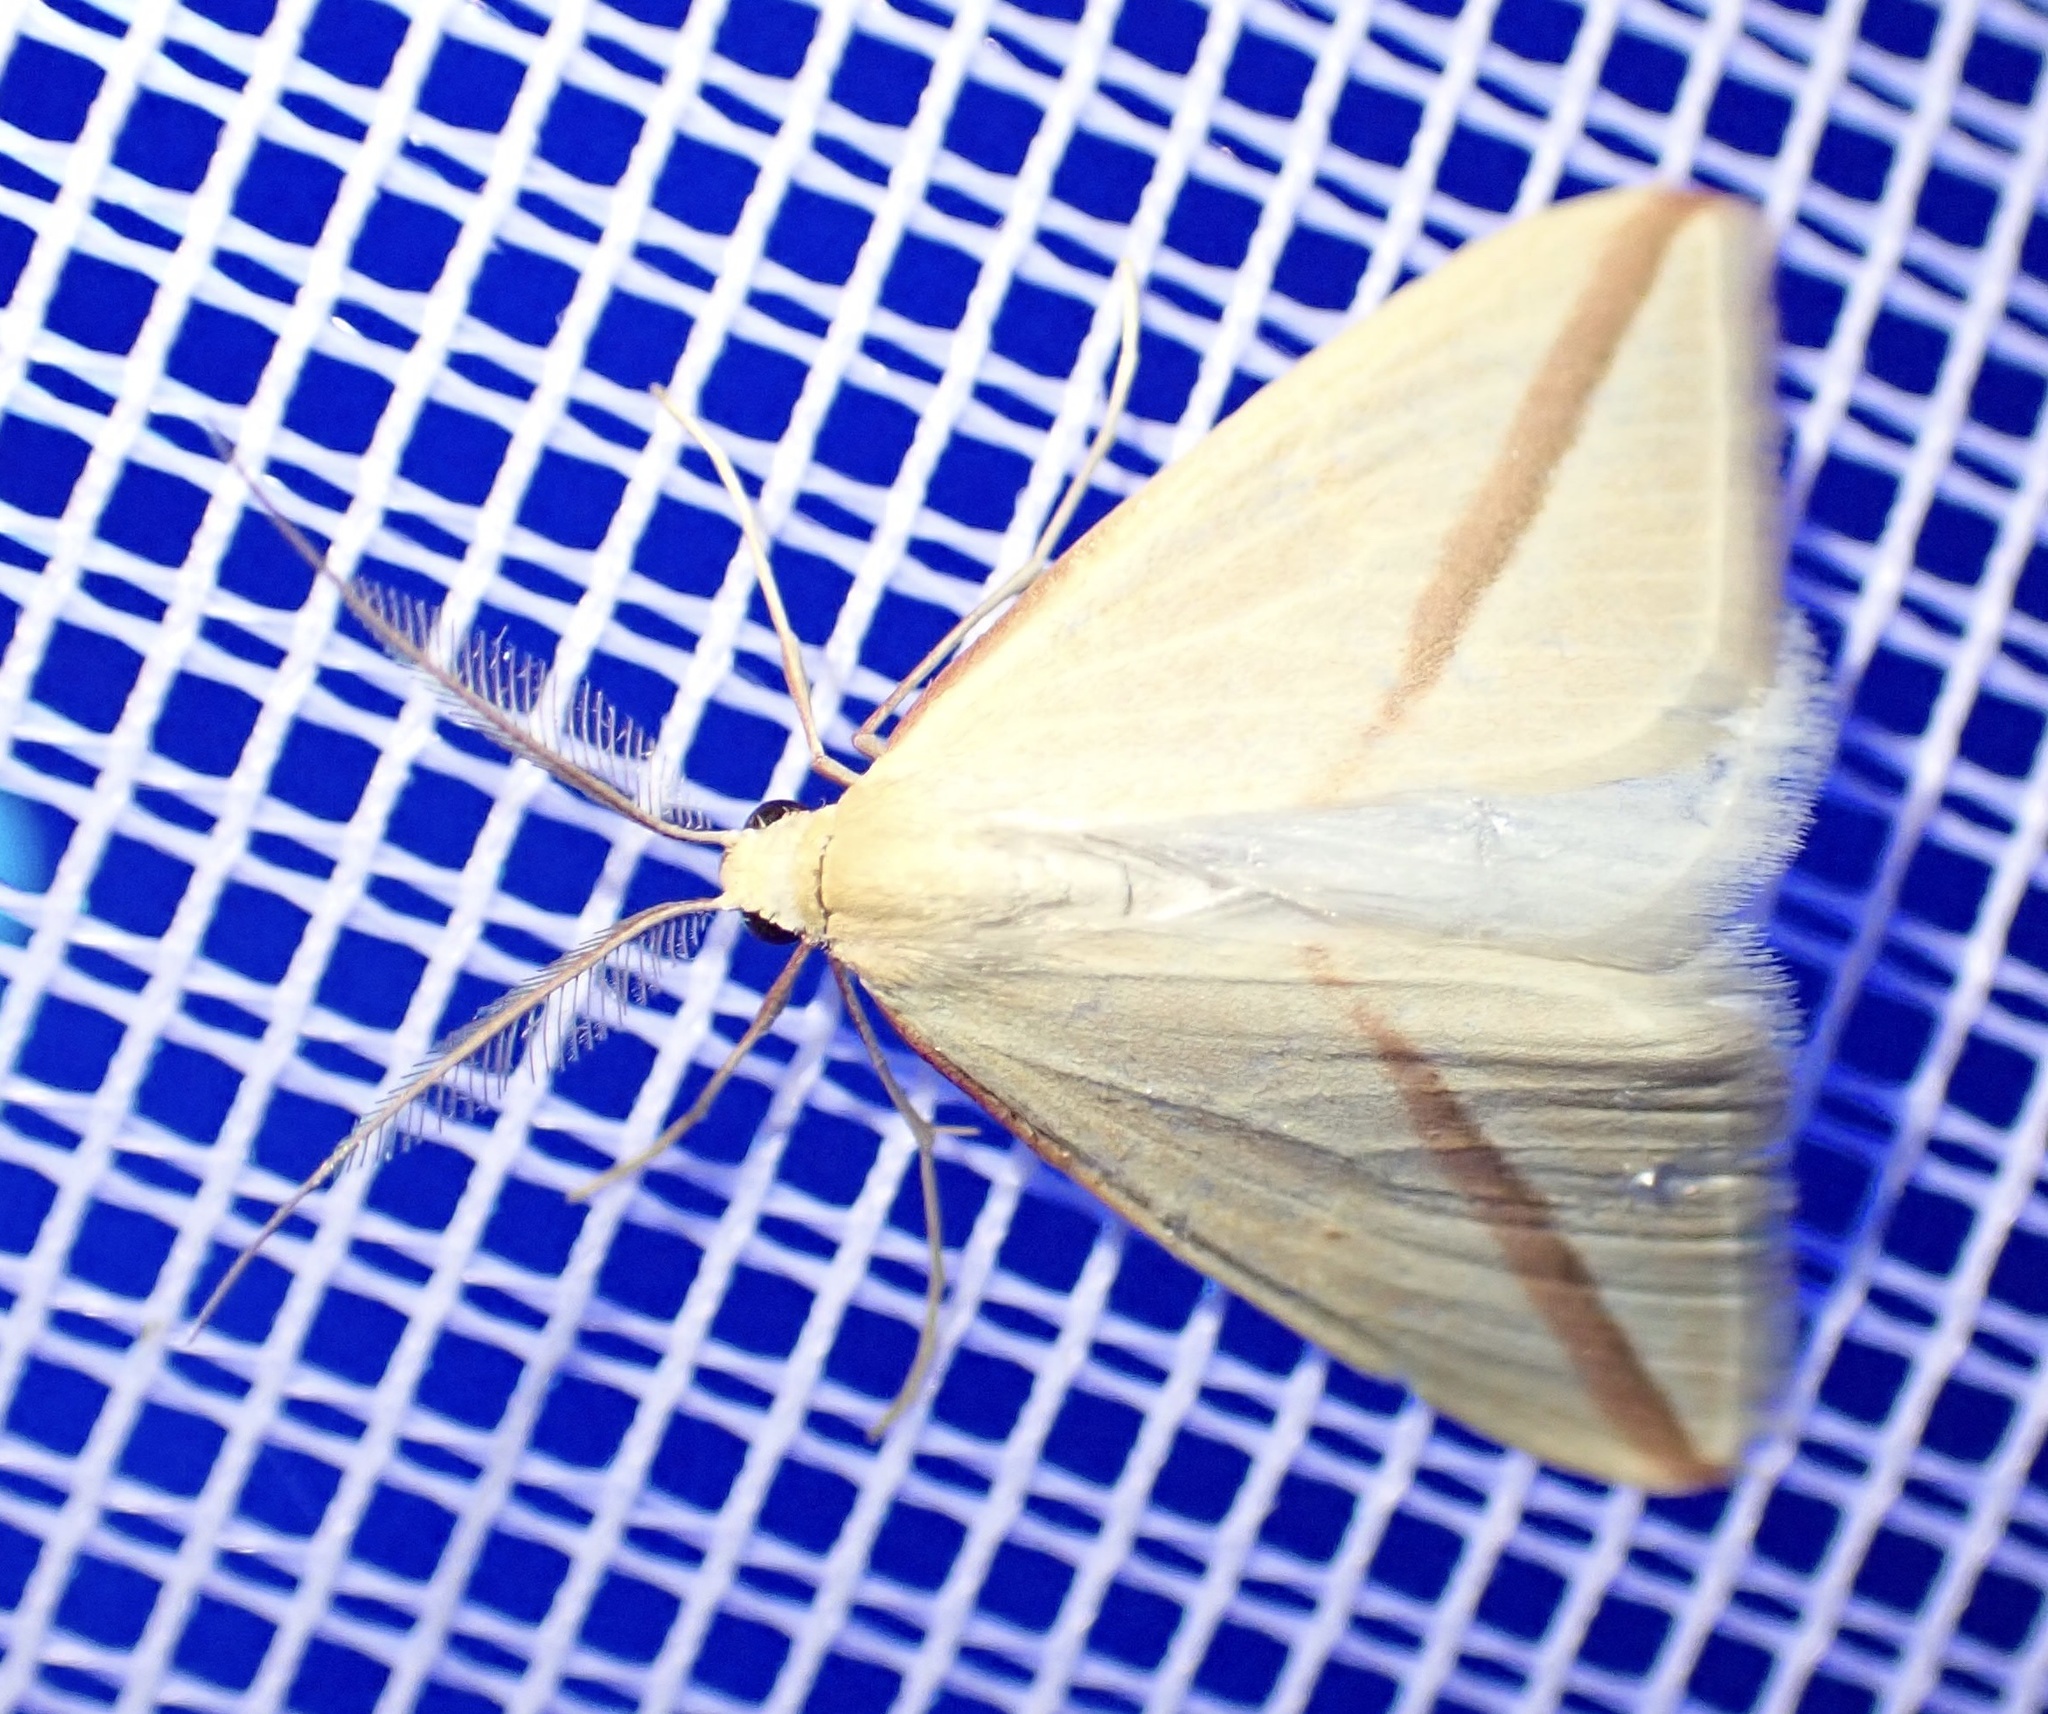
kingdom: Animalia
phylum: Arthropoda
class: Insecta
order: Lepidoptera
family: Geometridae
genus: Rhodometra
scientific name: Rhodometra sacraria
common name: Vestal
